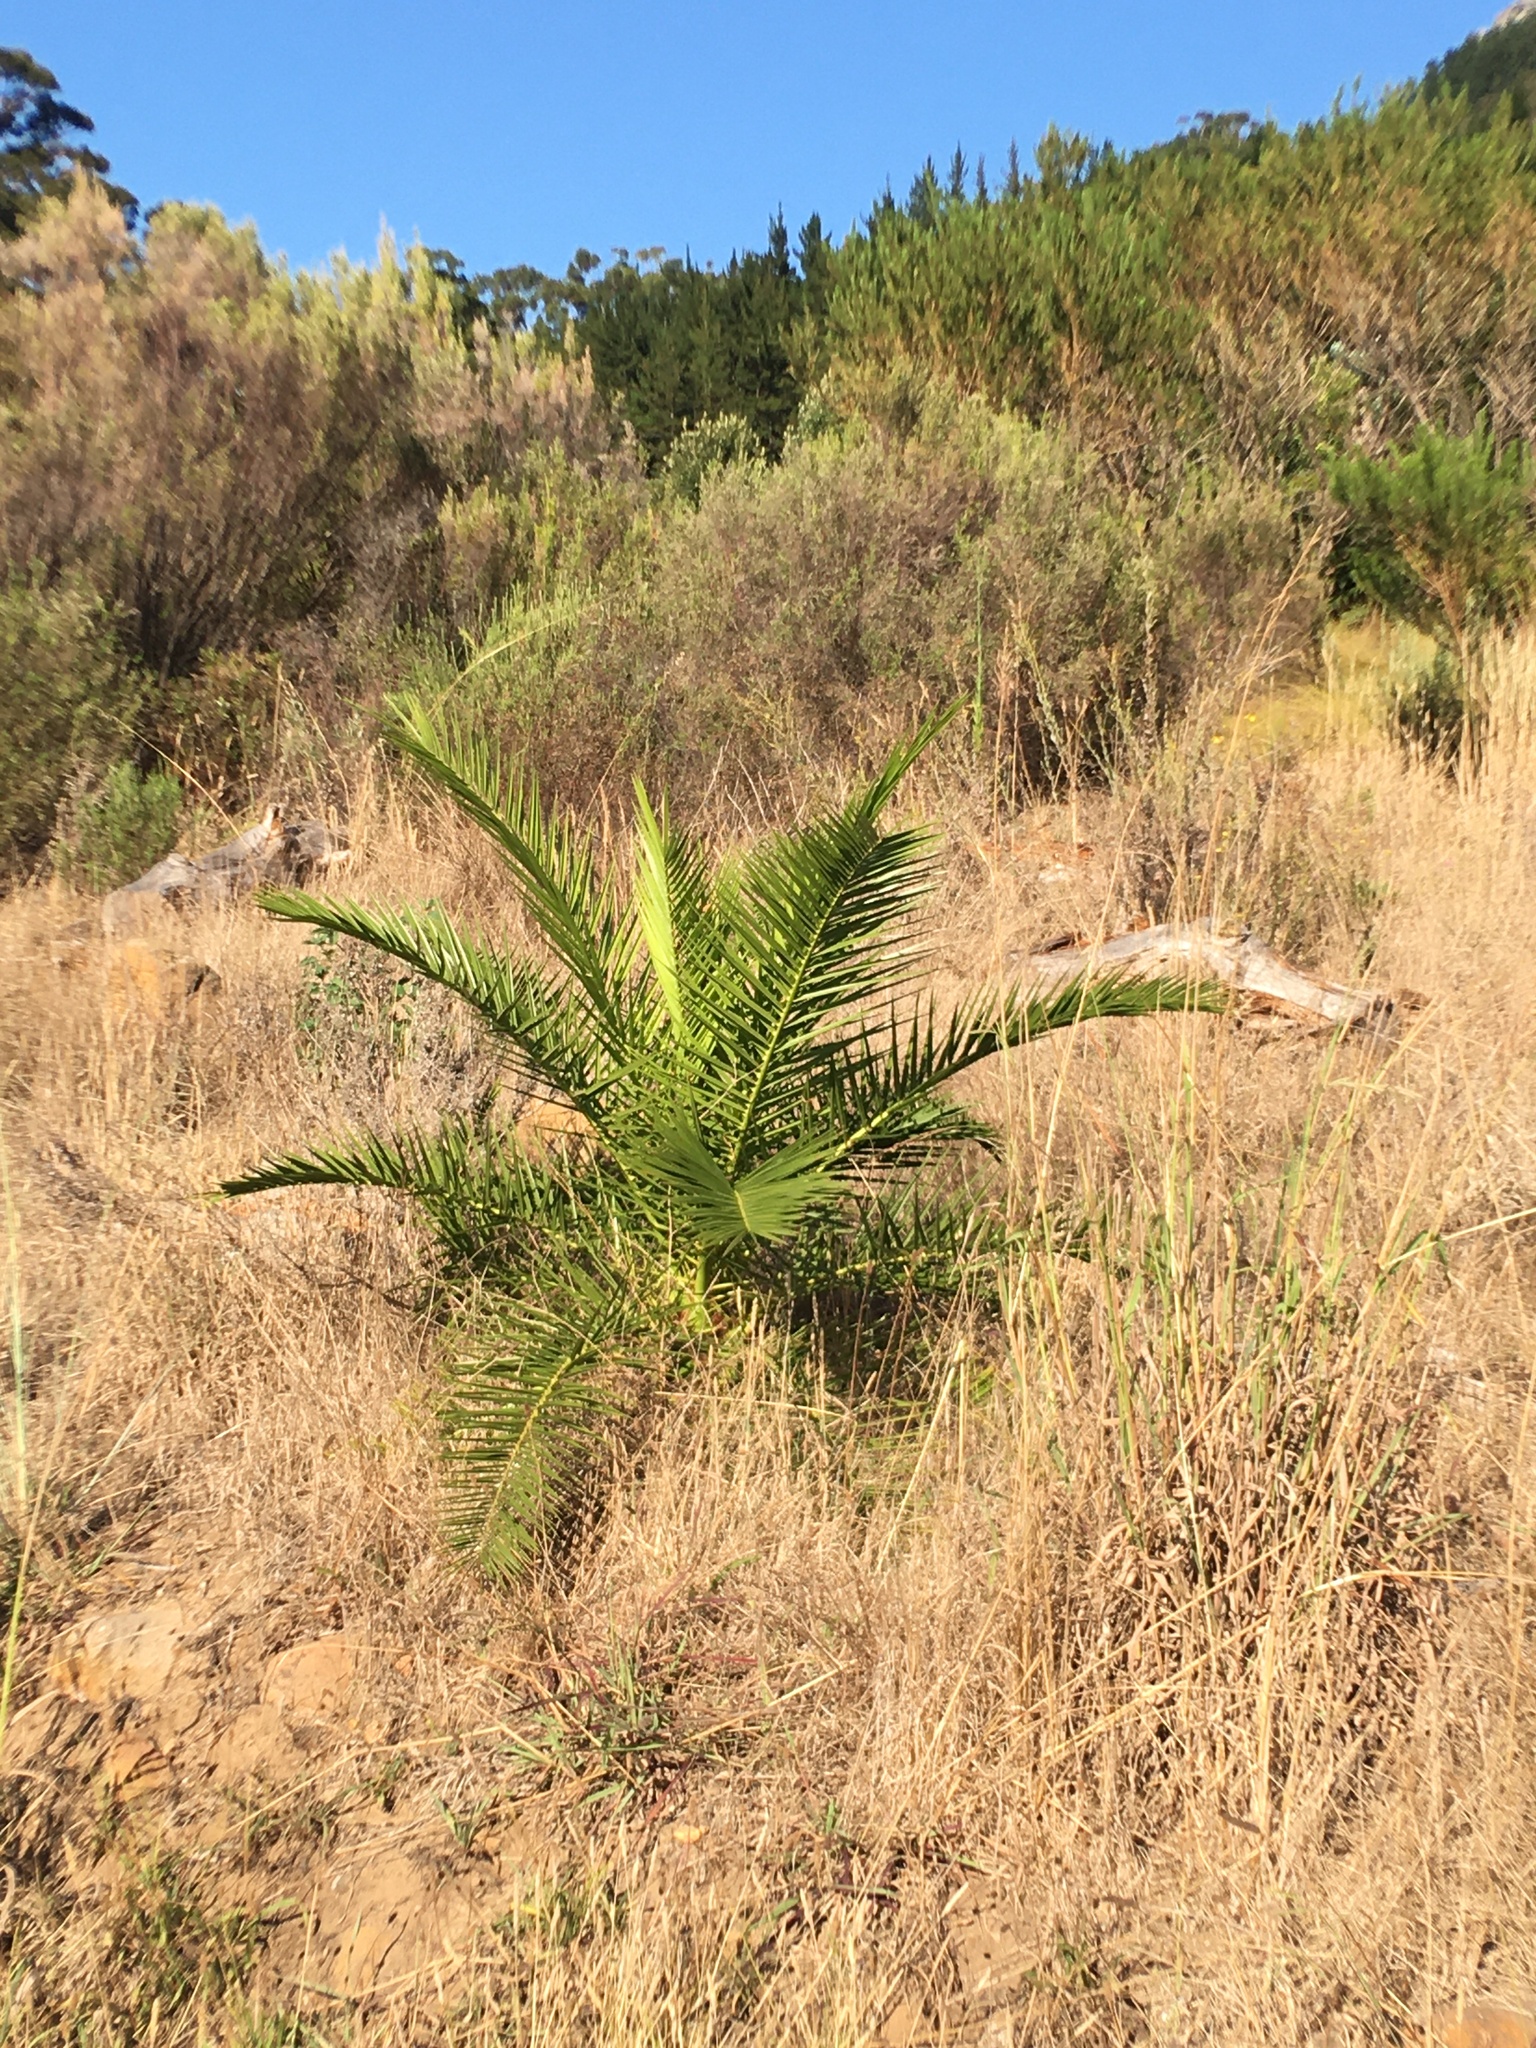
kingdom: Plantae
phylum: Tracheophyta
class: Liliopsida
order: Arecales
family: Arecaceae
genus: Phoenix
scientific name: Phoenix canariensis
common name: Canary island date palm
